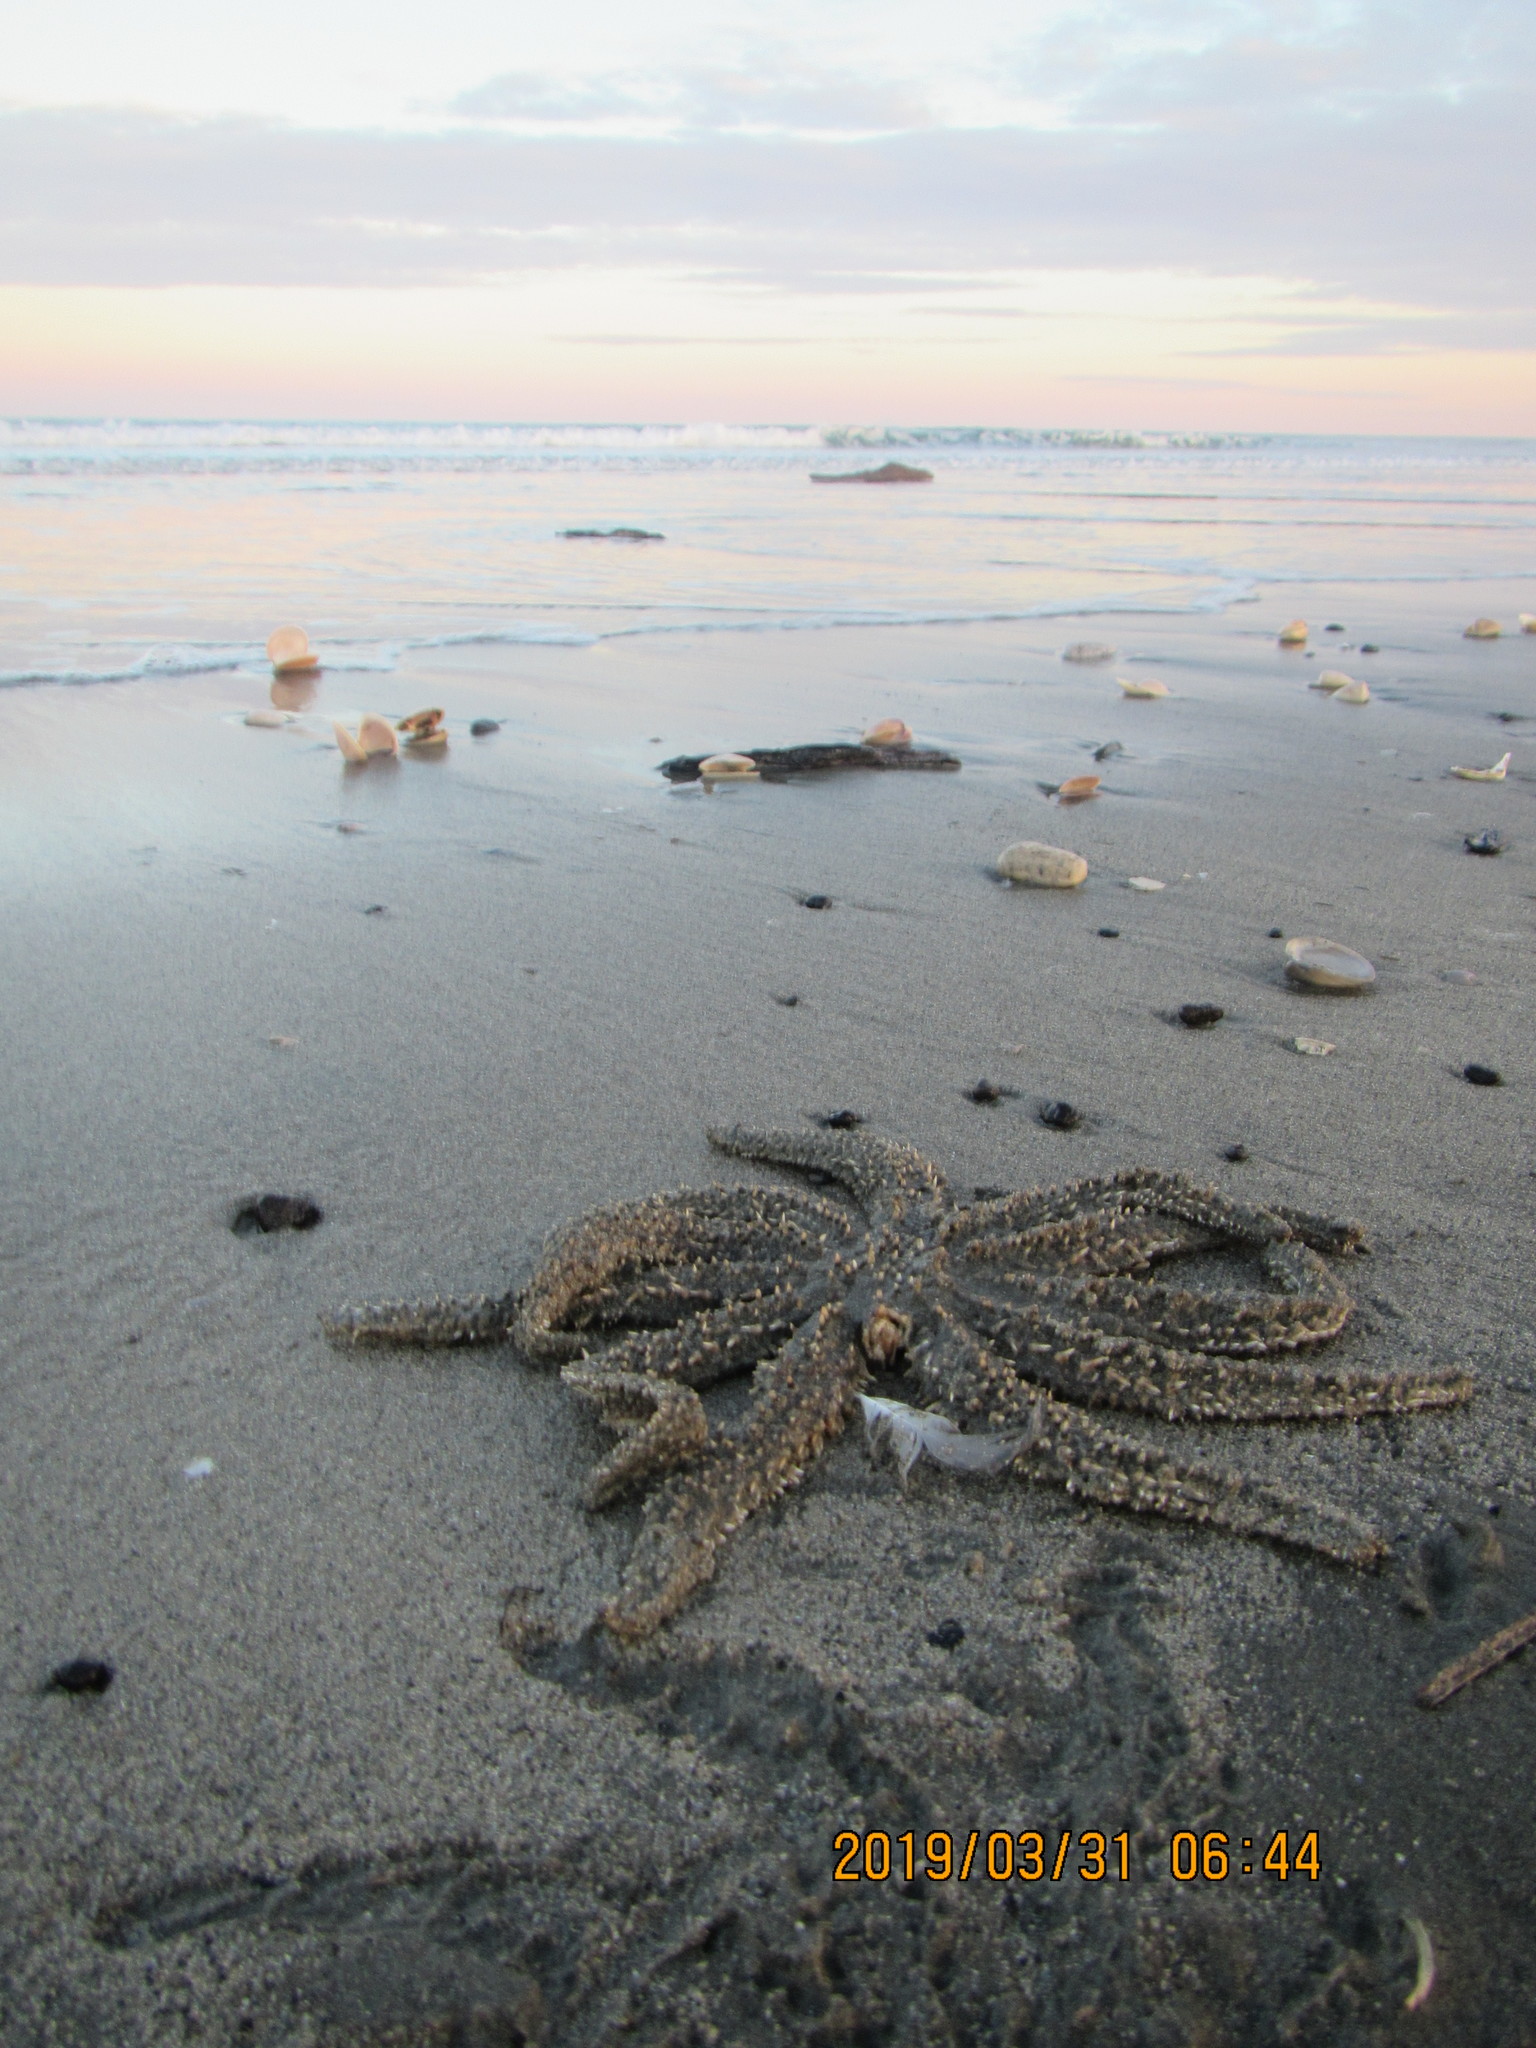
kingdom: Animalia
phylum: Echinodermata
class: Asteroidea
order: Forcipulatida
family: Asteriidae
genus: Coscinasterias
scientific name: Coscinasterias muricata
